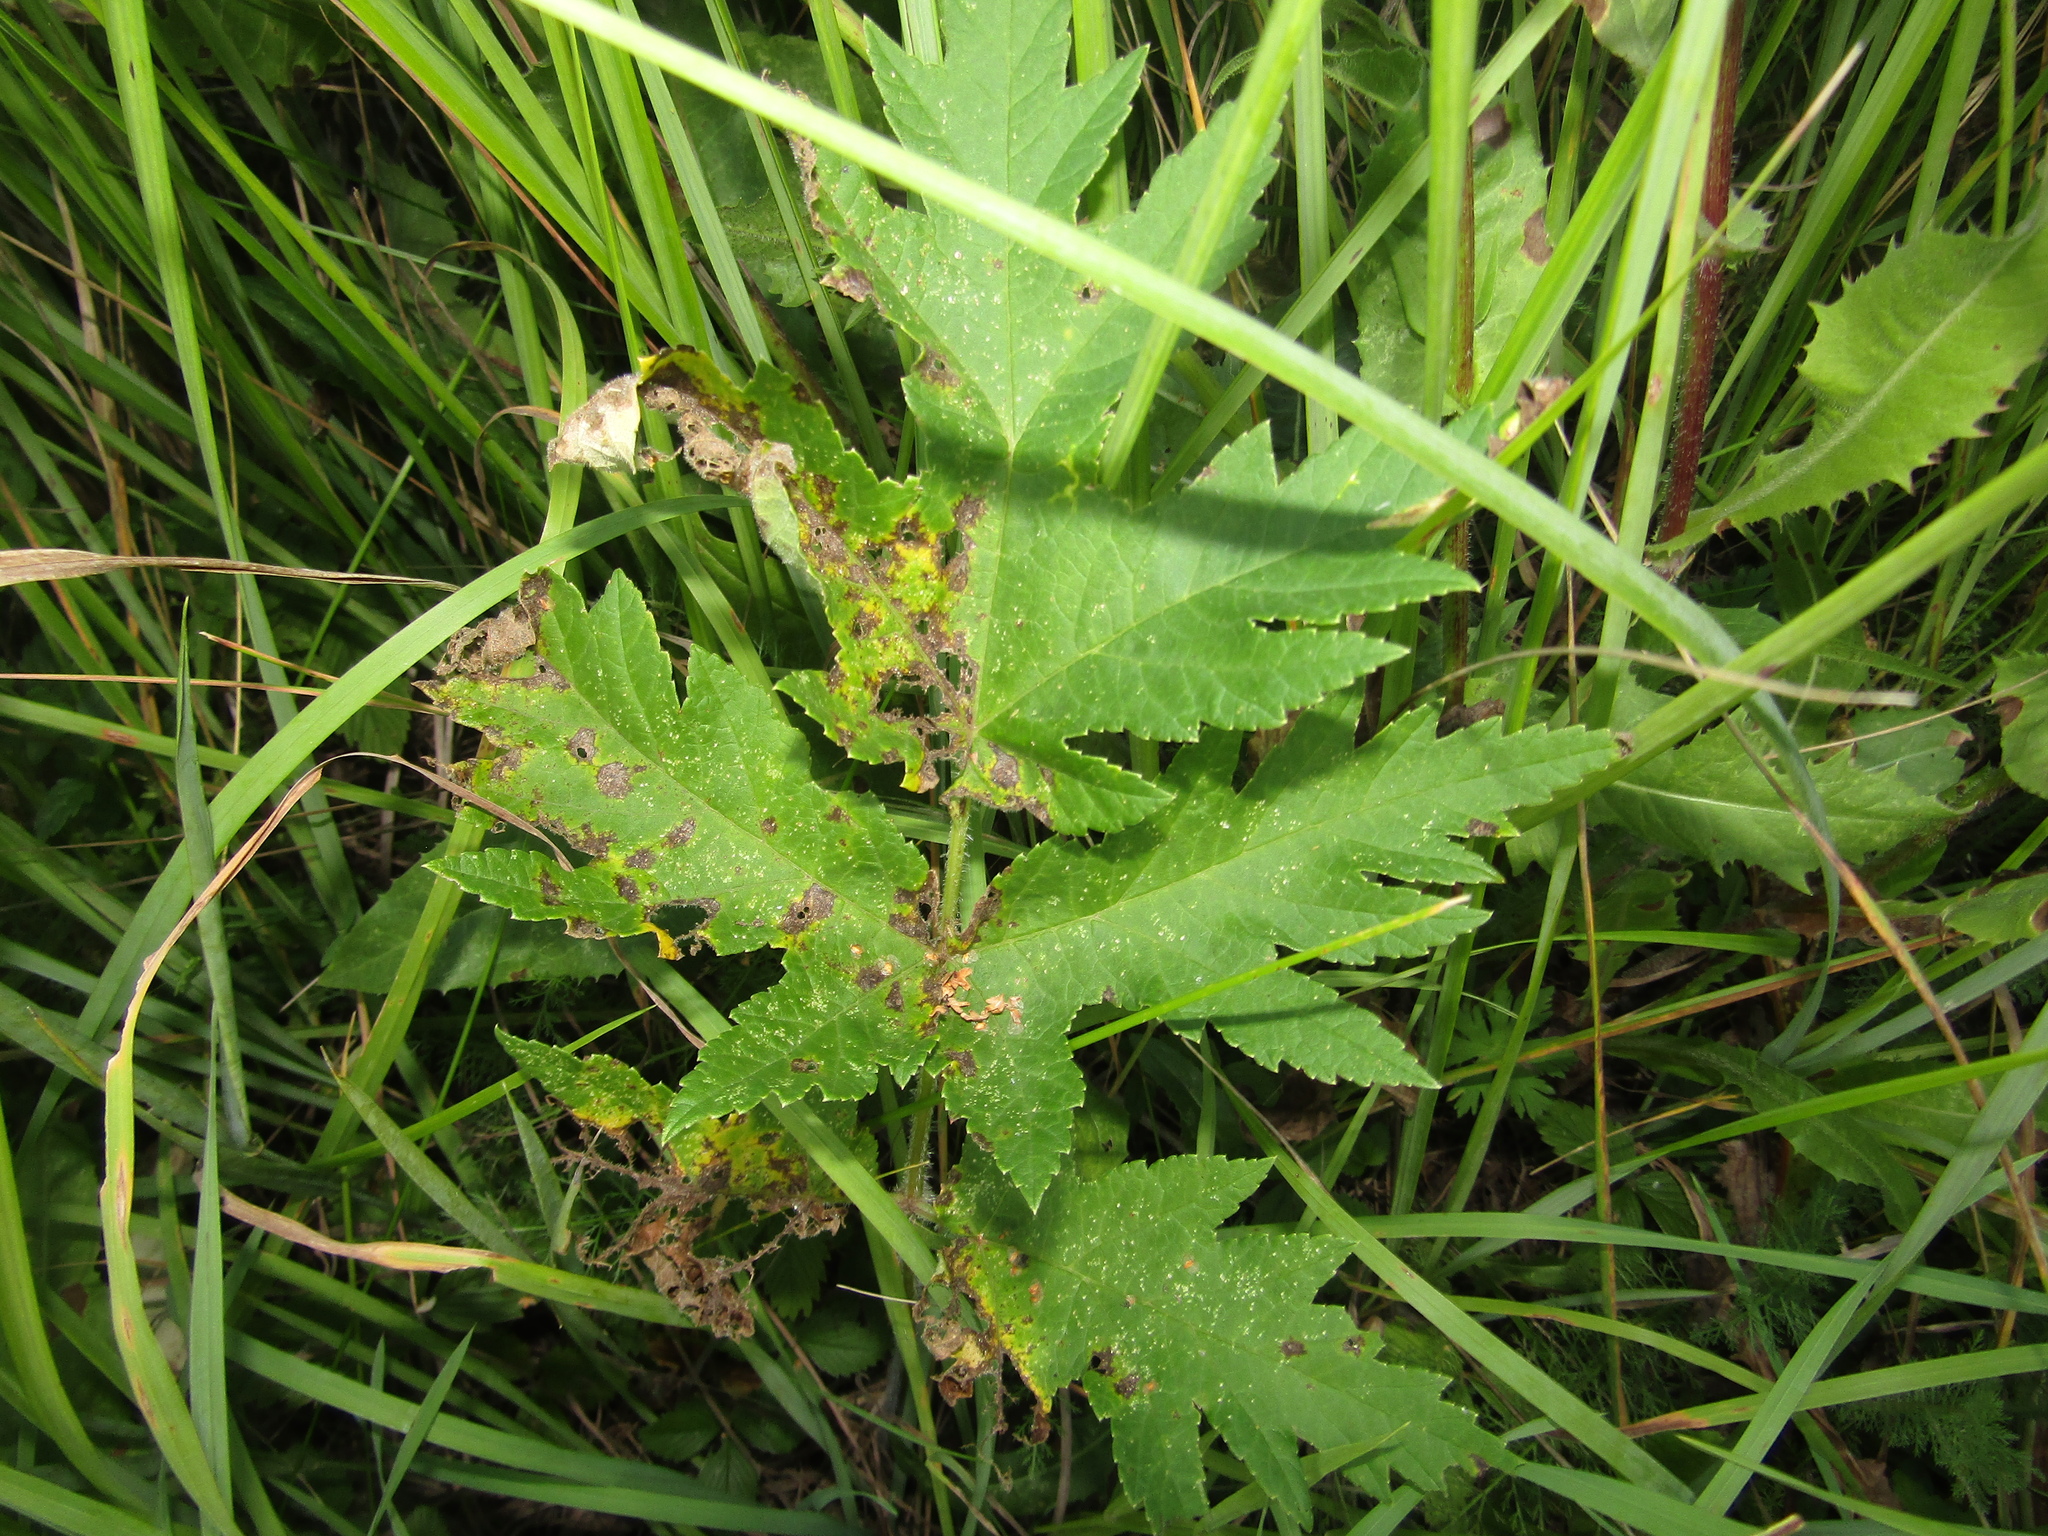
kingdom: Plantae
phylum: Tracheophyta
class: Magnoliopsida
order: Apiales
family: Apiaceae
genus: Heracleum
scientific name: Heracleum sphondylium
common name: Hogweed
